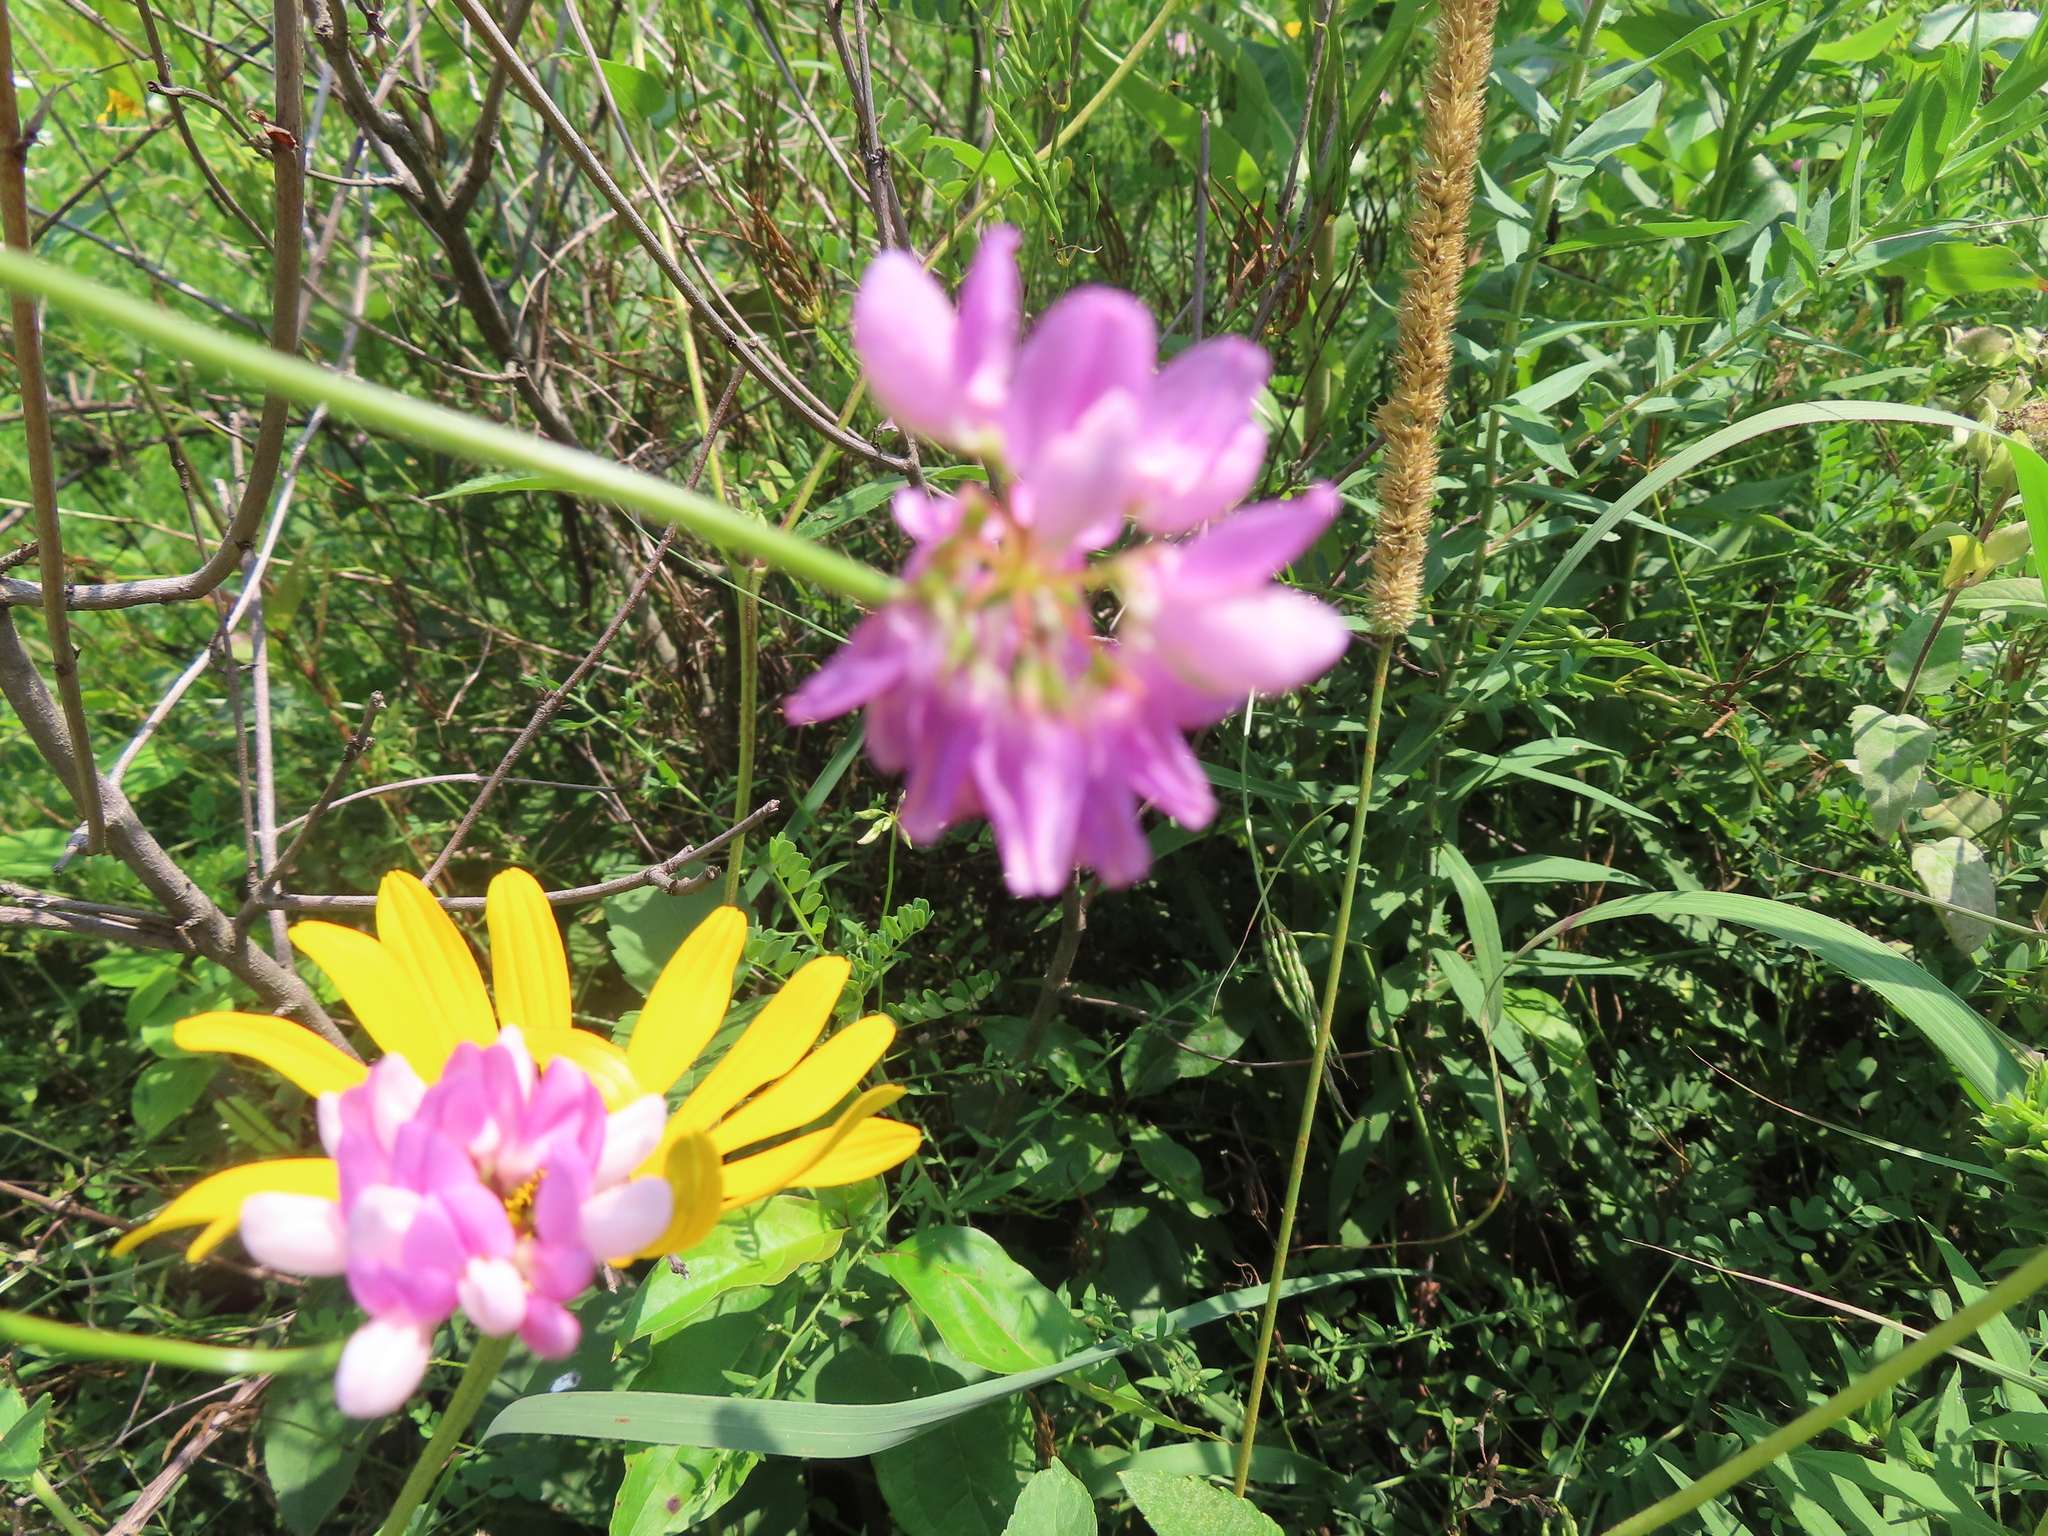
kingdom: Plantae
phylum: Tracheophyta
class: Magnoliopsida
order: Fabales
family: Fabaceae
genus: Coronilla
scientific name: Coronilla varia
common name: Crownvetch
